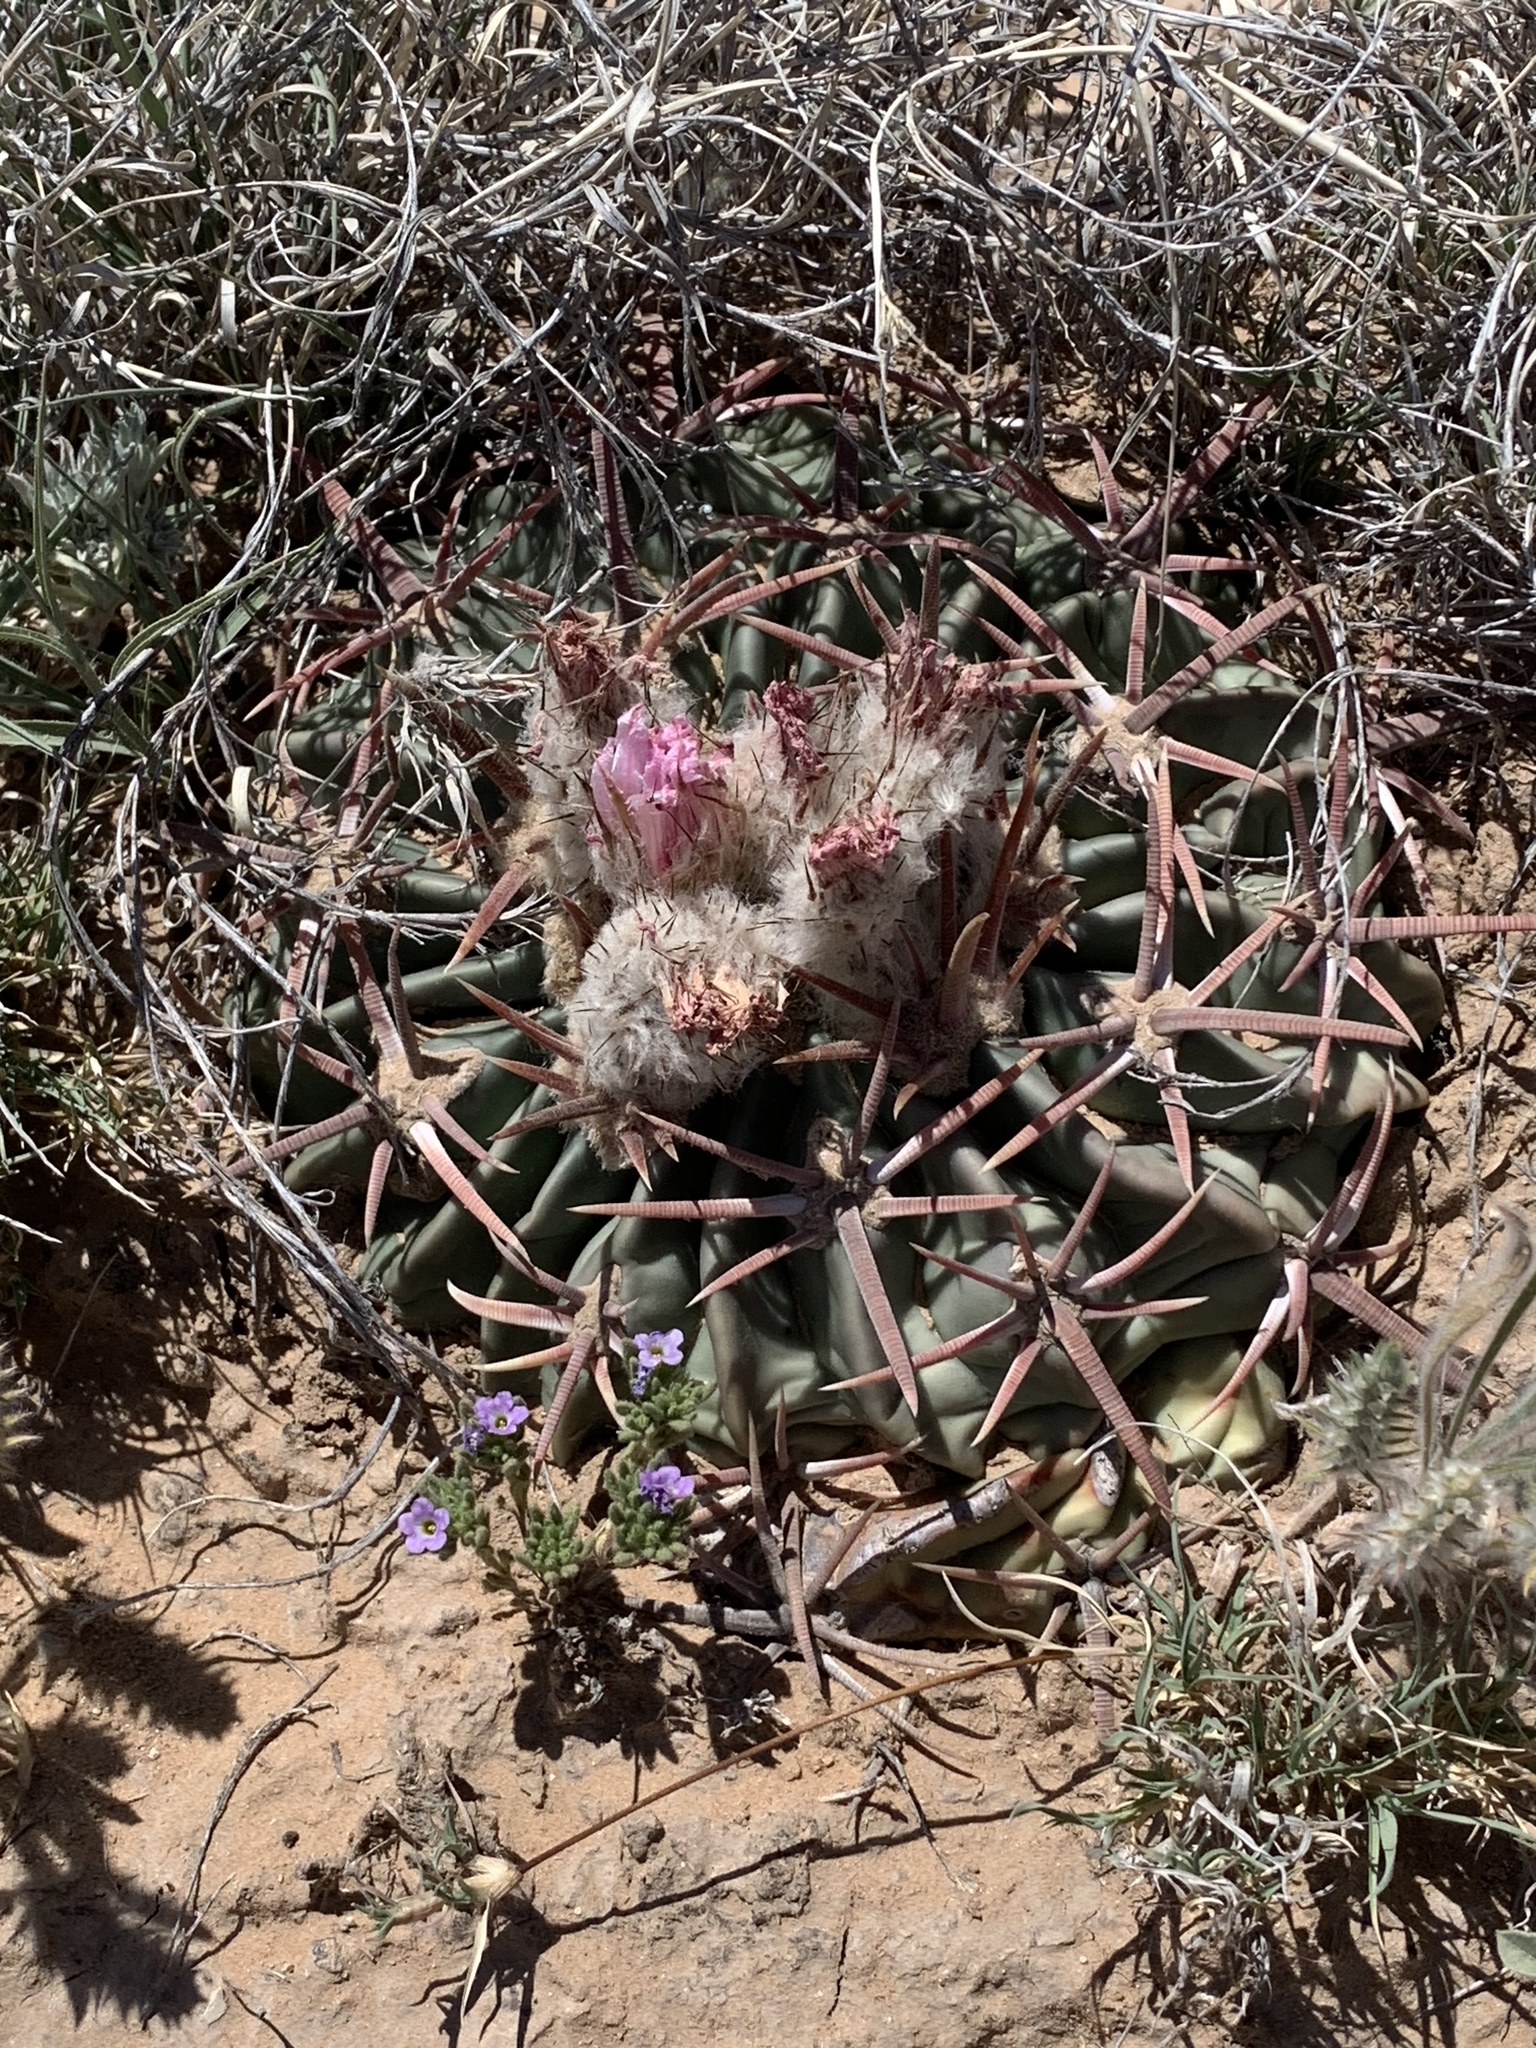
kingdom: Plantae
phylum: Tracheophyta
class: Magnoliopsida
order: Caryophyllales
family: Cactaceae
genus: Echinocactus
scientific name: Echinocactus texensis
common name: Devil's pincushion
